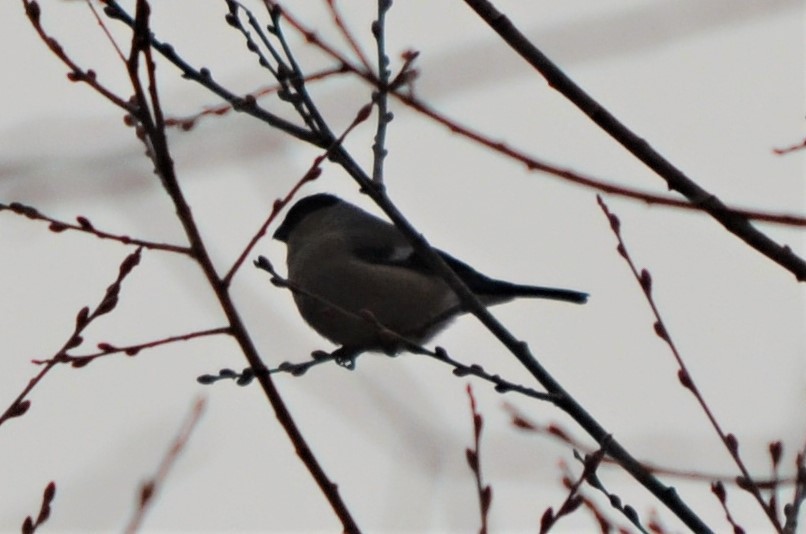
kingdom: Animalia
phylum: Chordata
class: Aves
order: Passeriformes
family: Fringillidae
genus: Pyrrhula
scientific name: Pyrrhula pyrrhula
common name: Eurasian bullfinch
